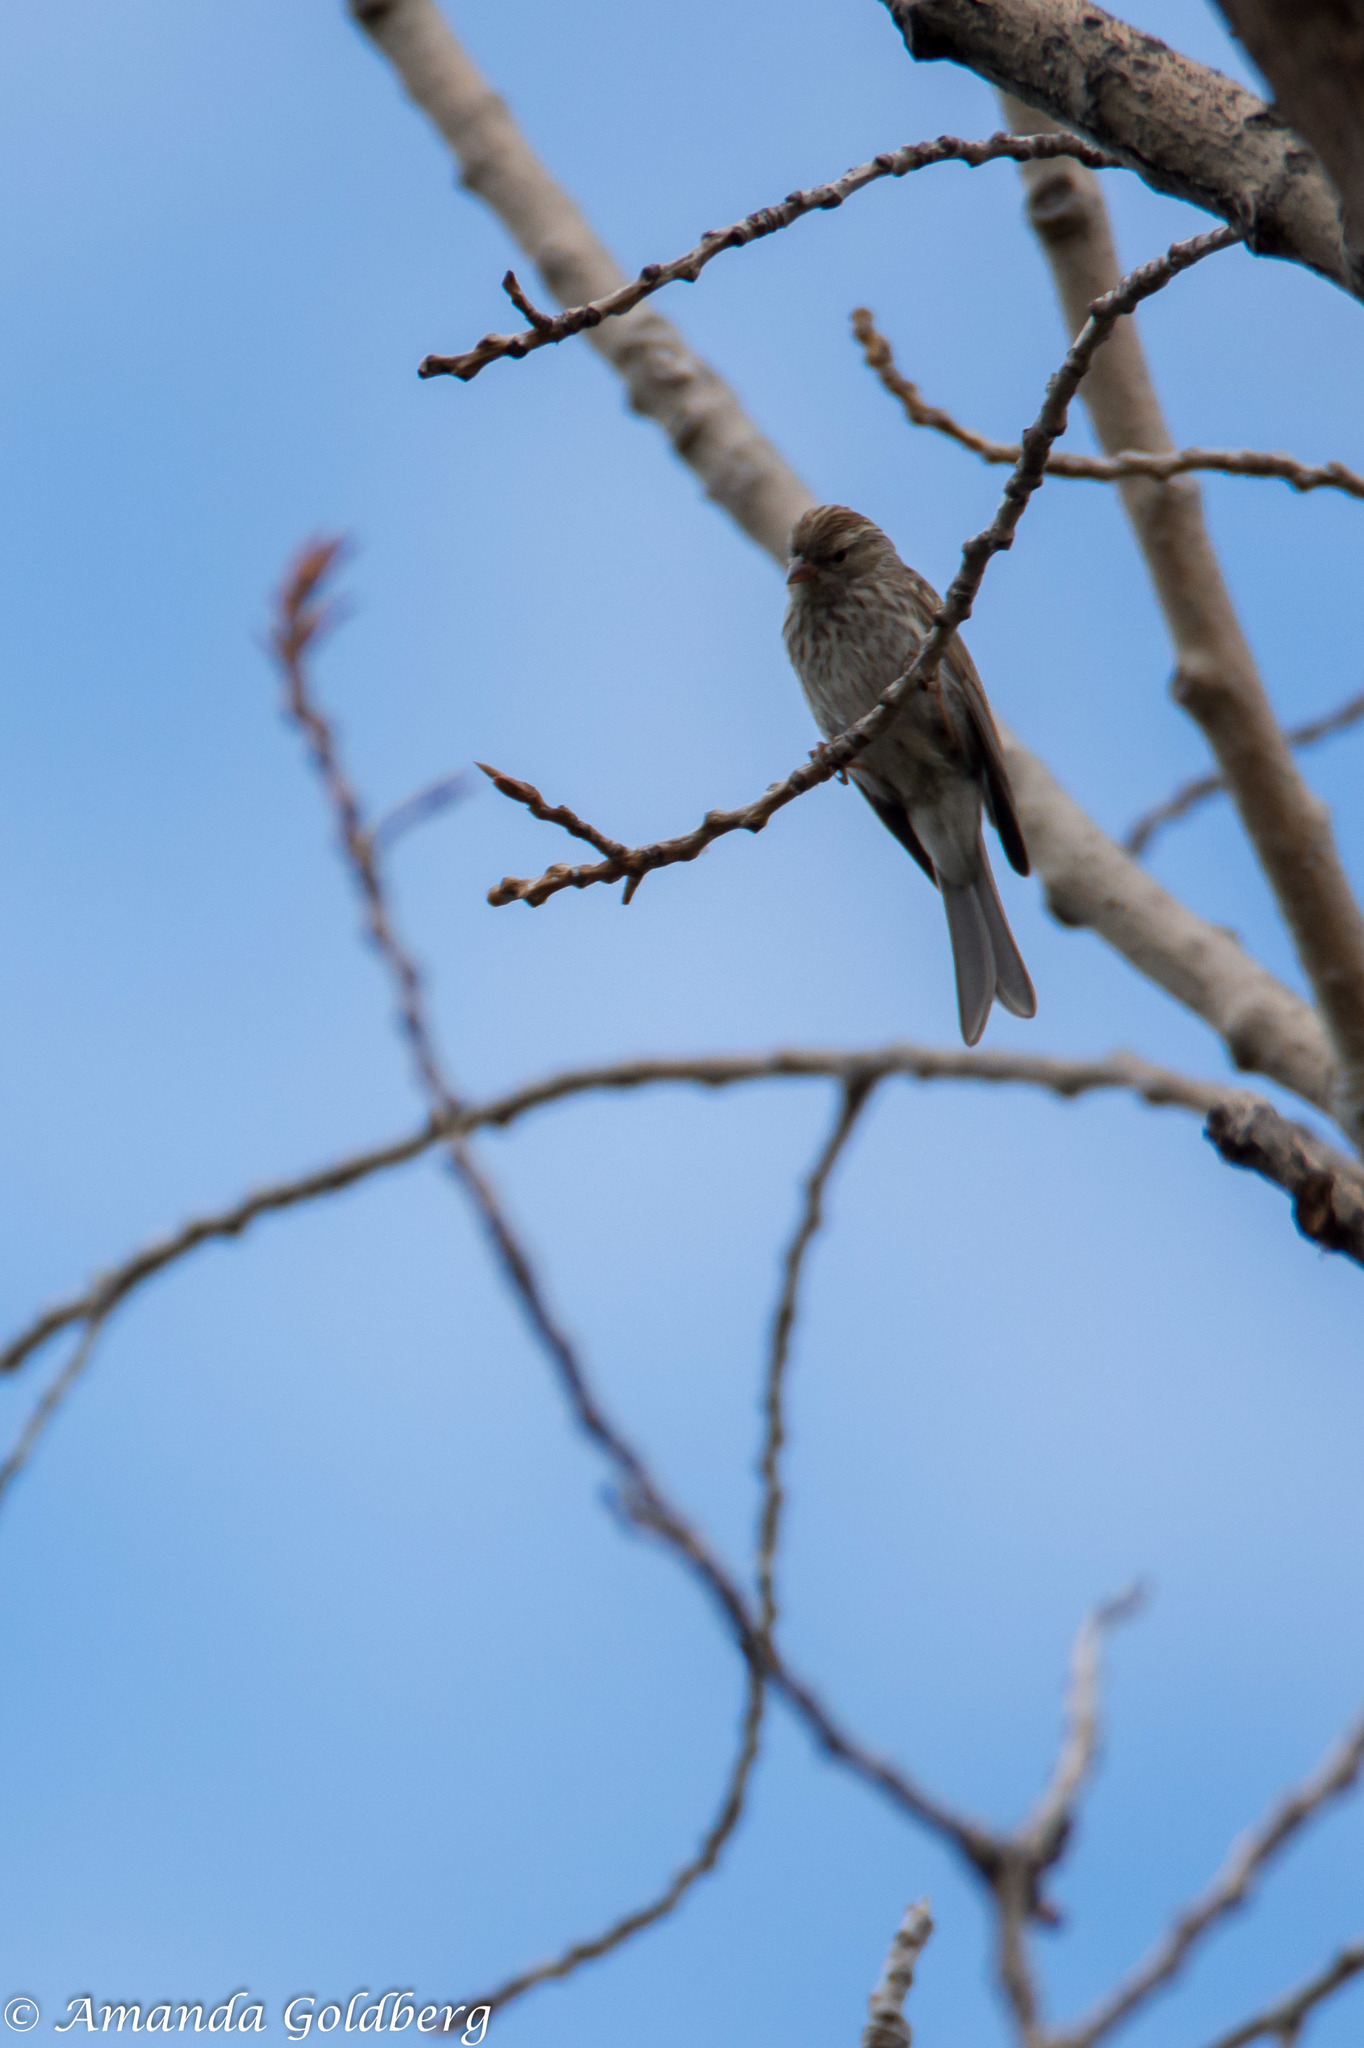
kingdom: Animalia
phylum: Chordata
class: Aves
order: Passeriformes
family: Passerellidae
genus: Spizella
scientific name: Spizella passerina
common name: Chipping sparrow
